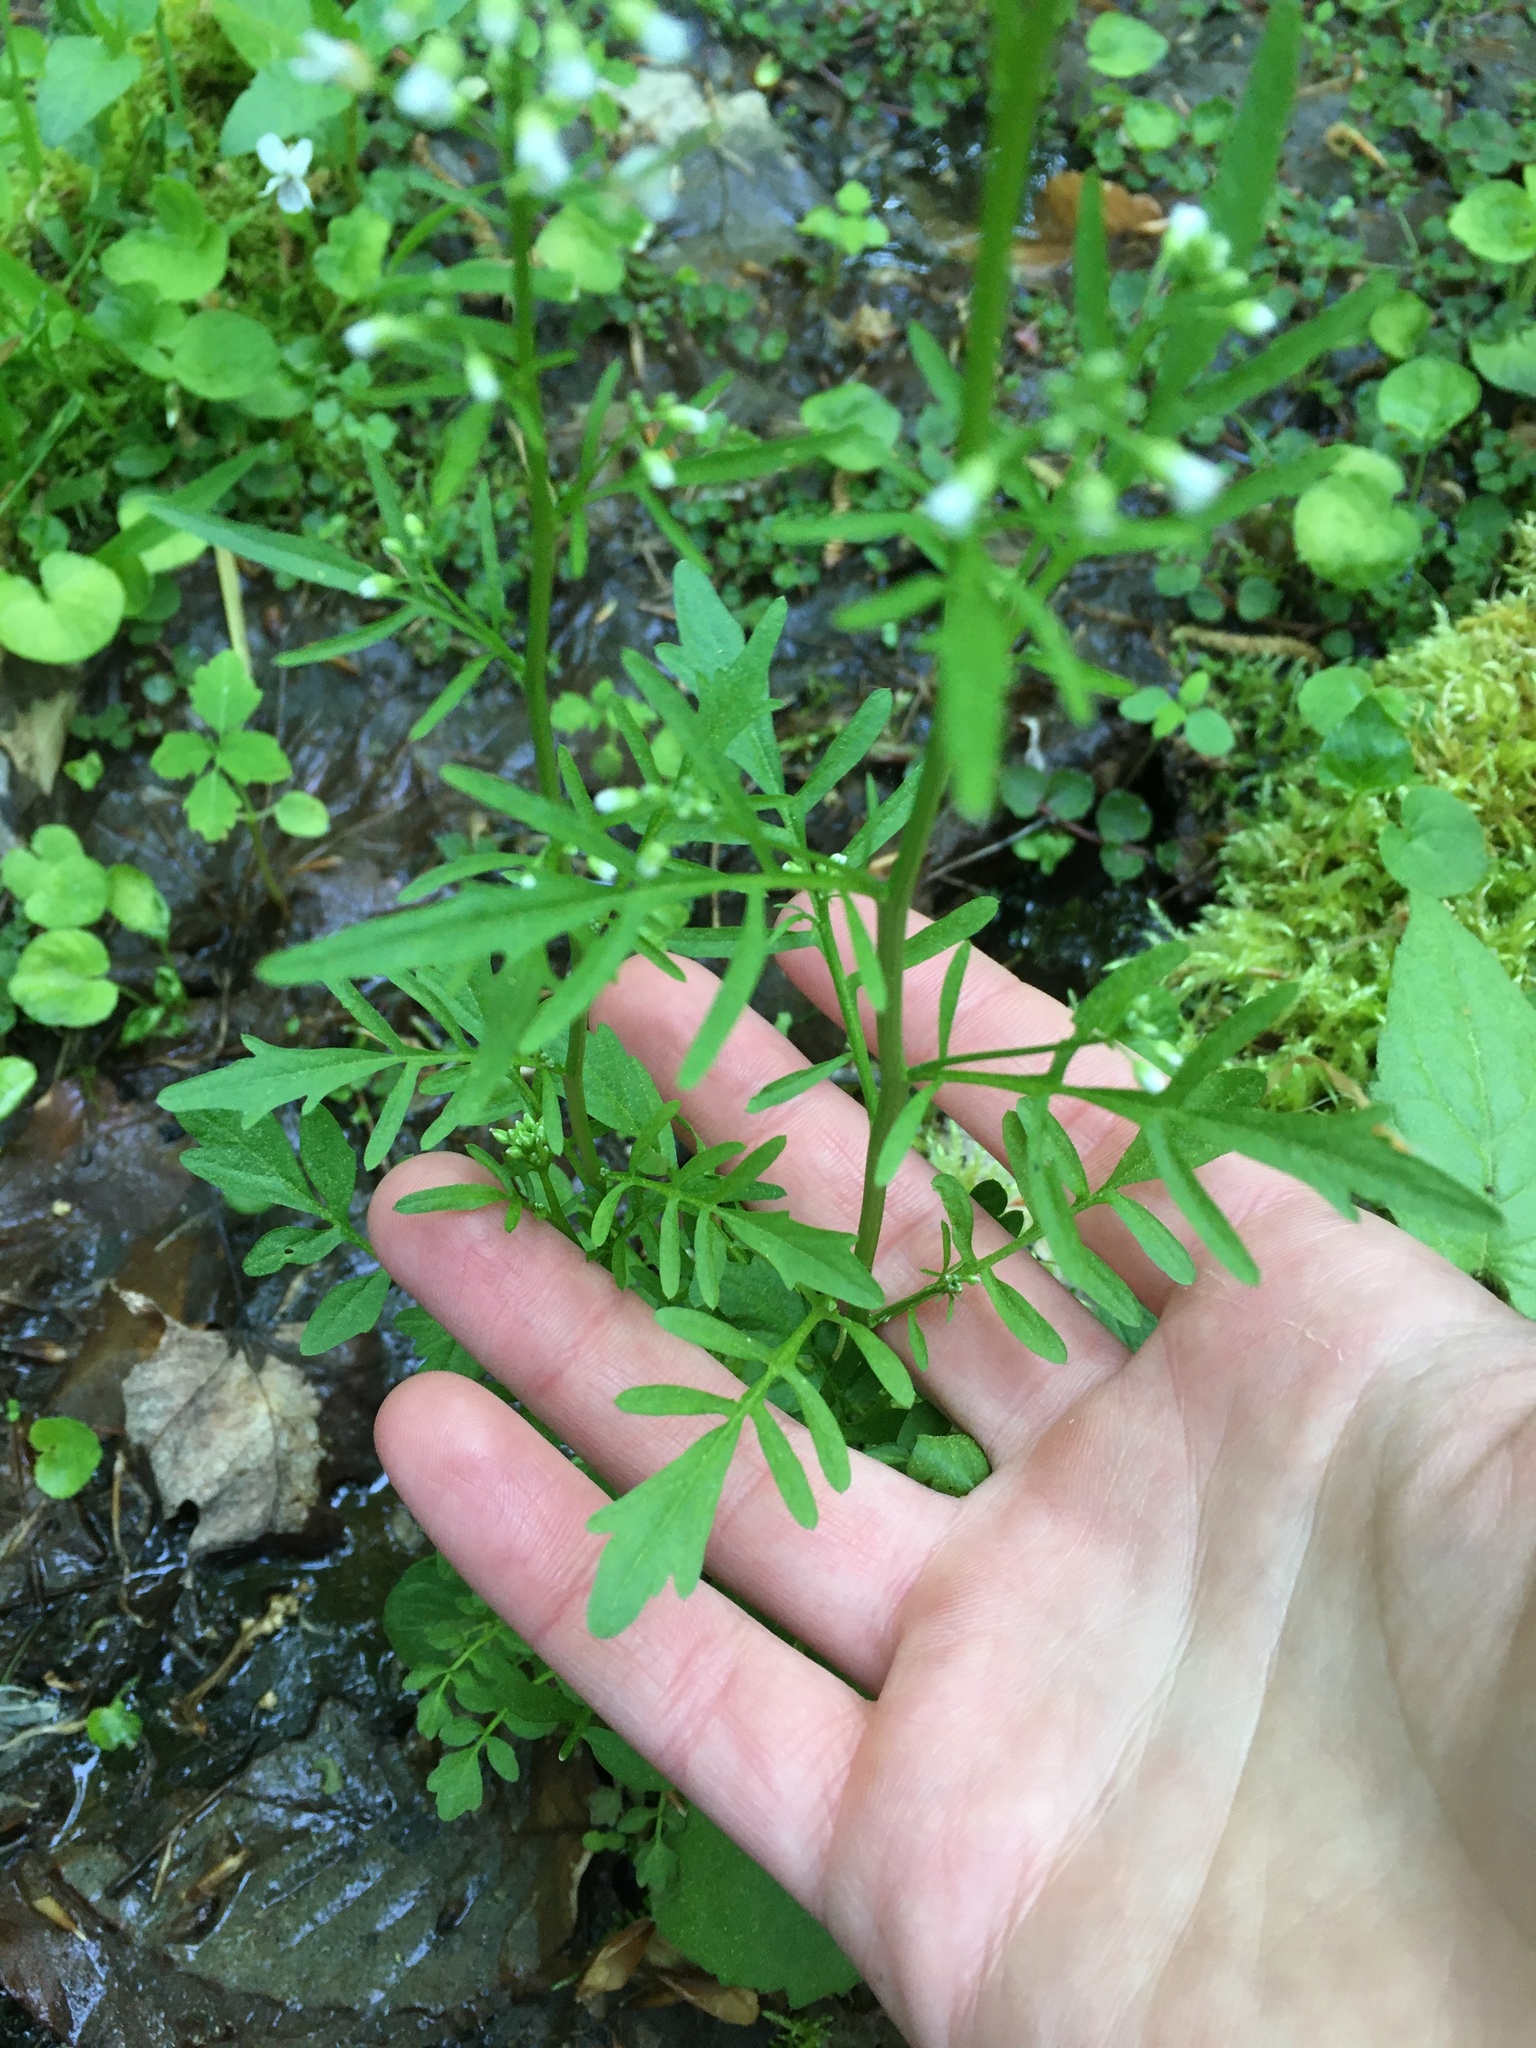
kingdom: Plantae
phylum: Tracheophyta
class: Magnoliopsida
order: Brassicales
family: Brassicaceae
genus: Cardamine
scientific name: Cardamine pensylvanica
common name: Pennsylvania bittercress
